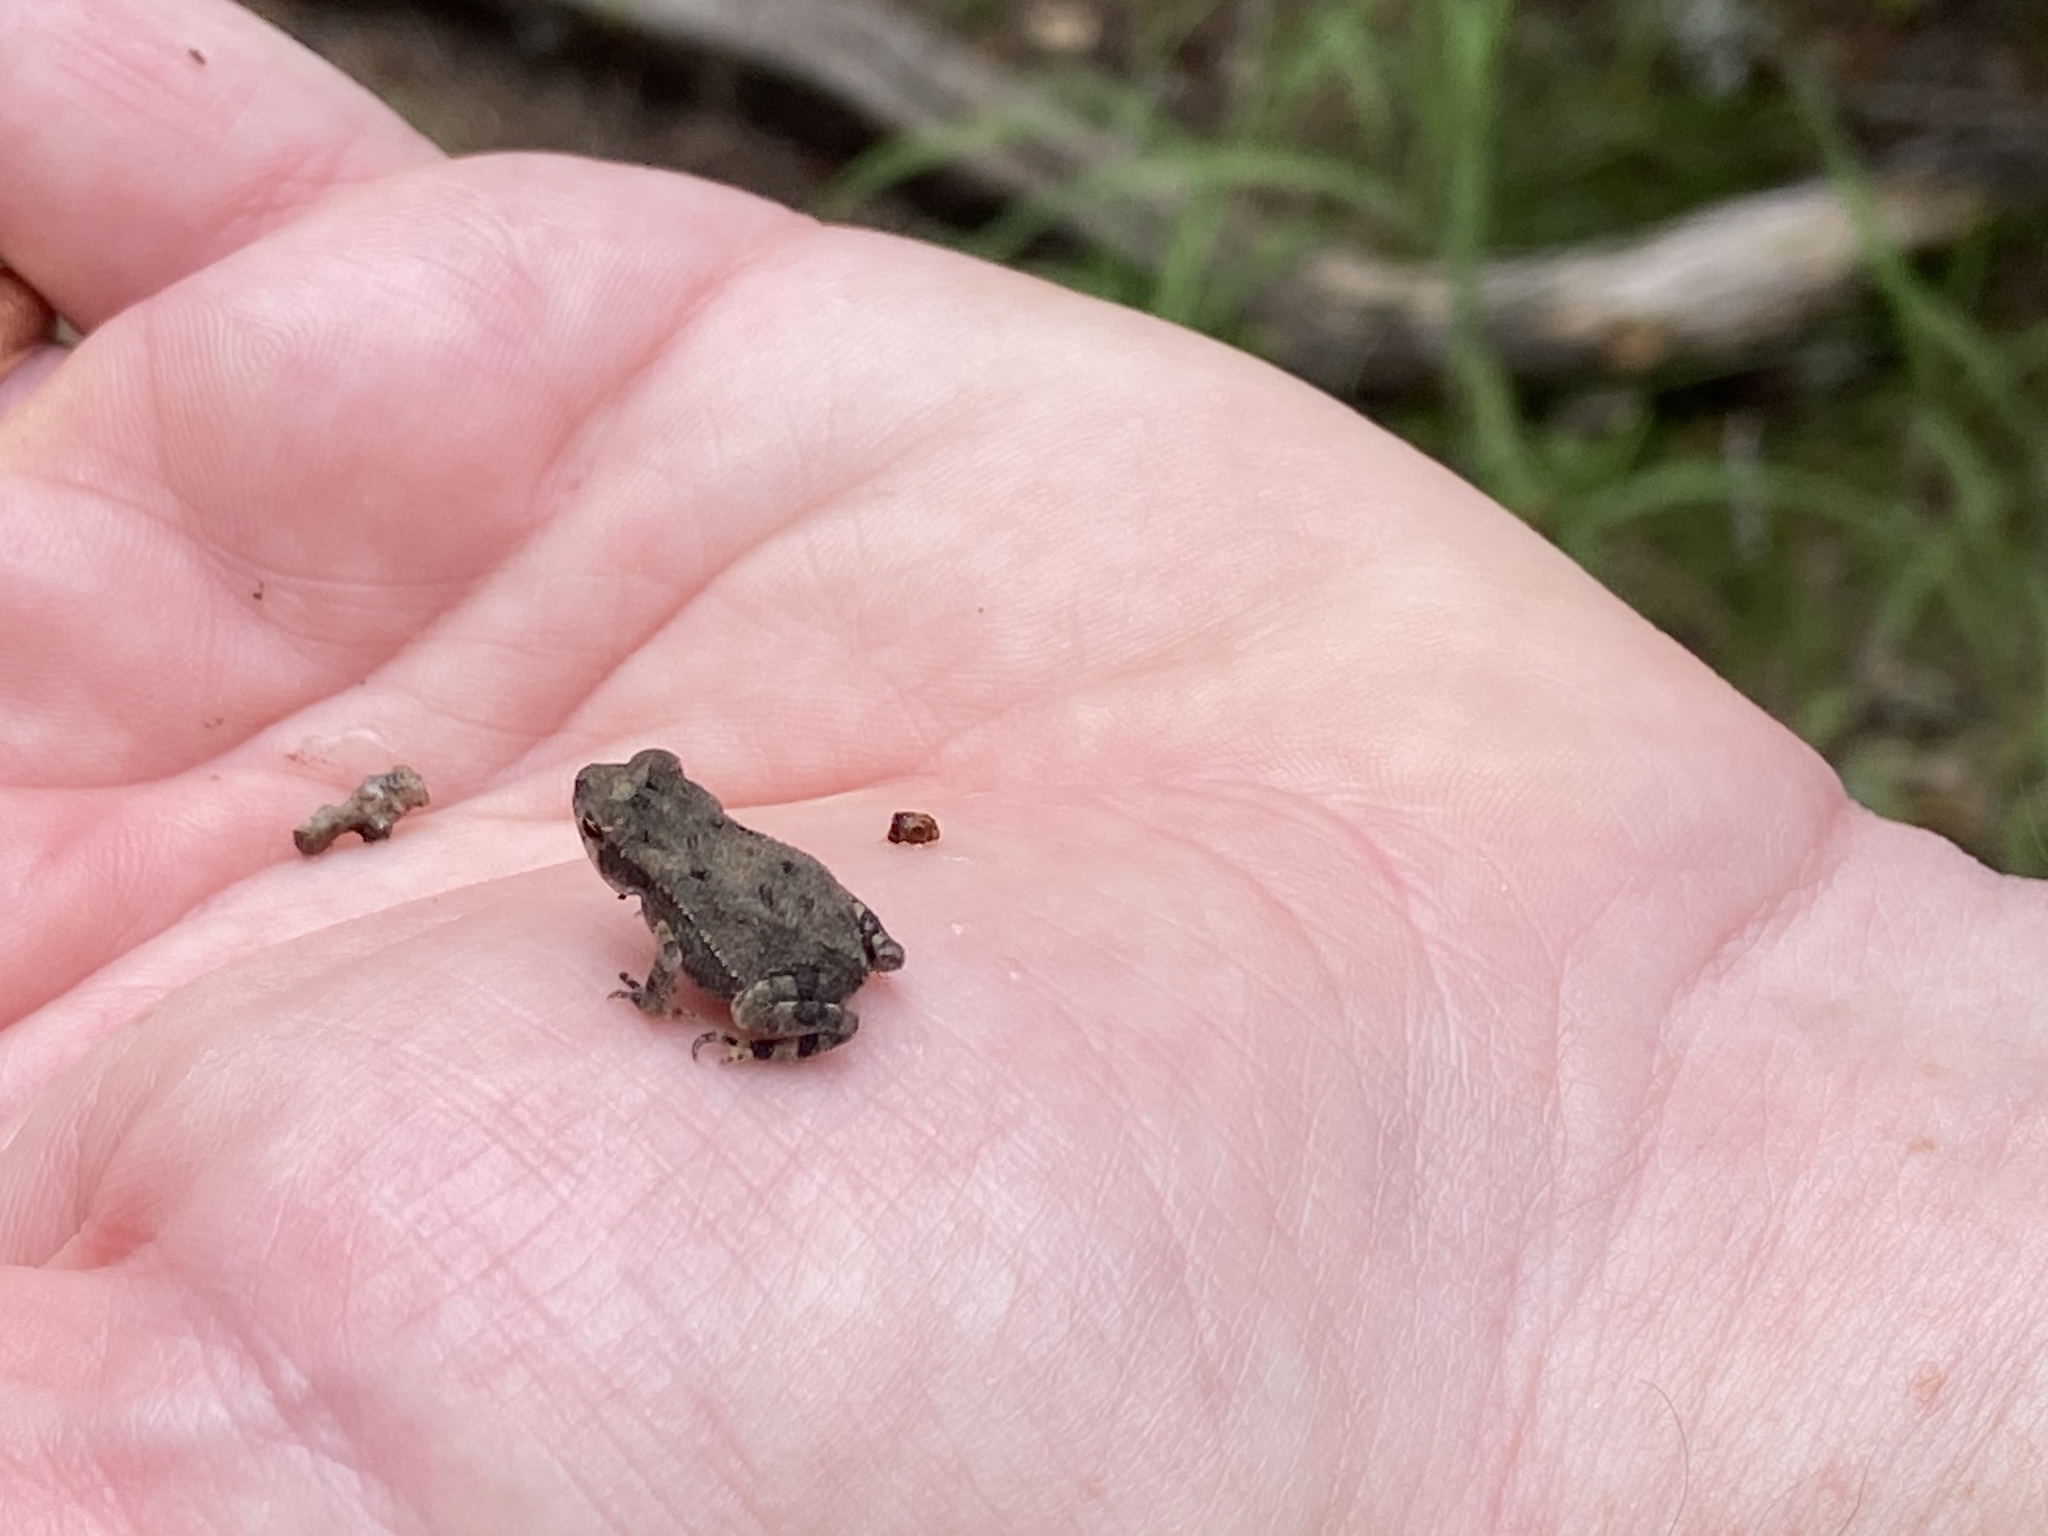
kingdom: Animalia
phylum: Chordata
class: Amphibia
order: Anura
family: Bufonidae
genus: Incilius
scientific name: Incilius nebulifer
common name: Gulf coast toad
